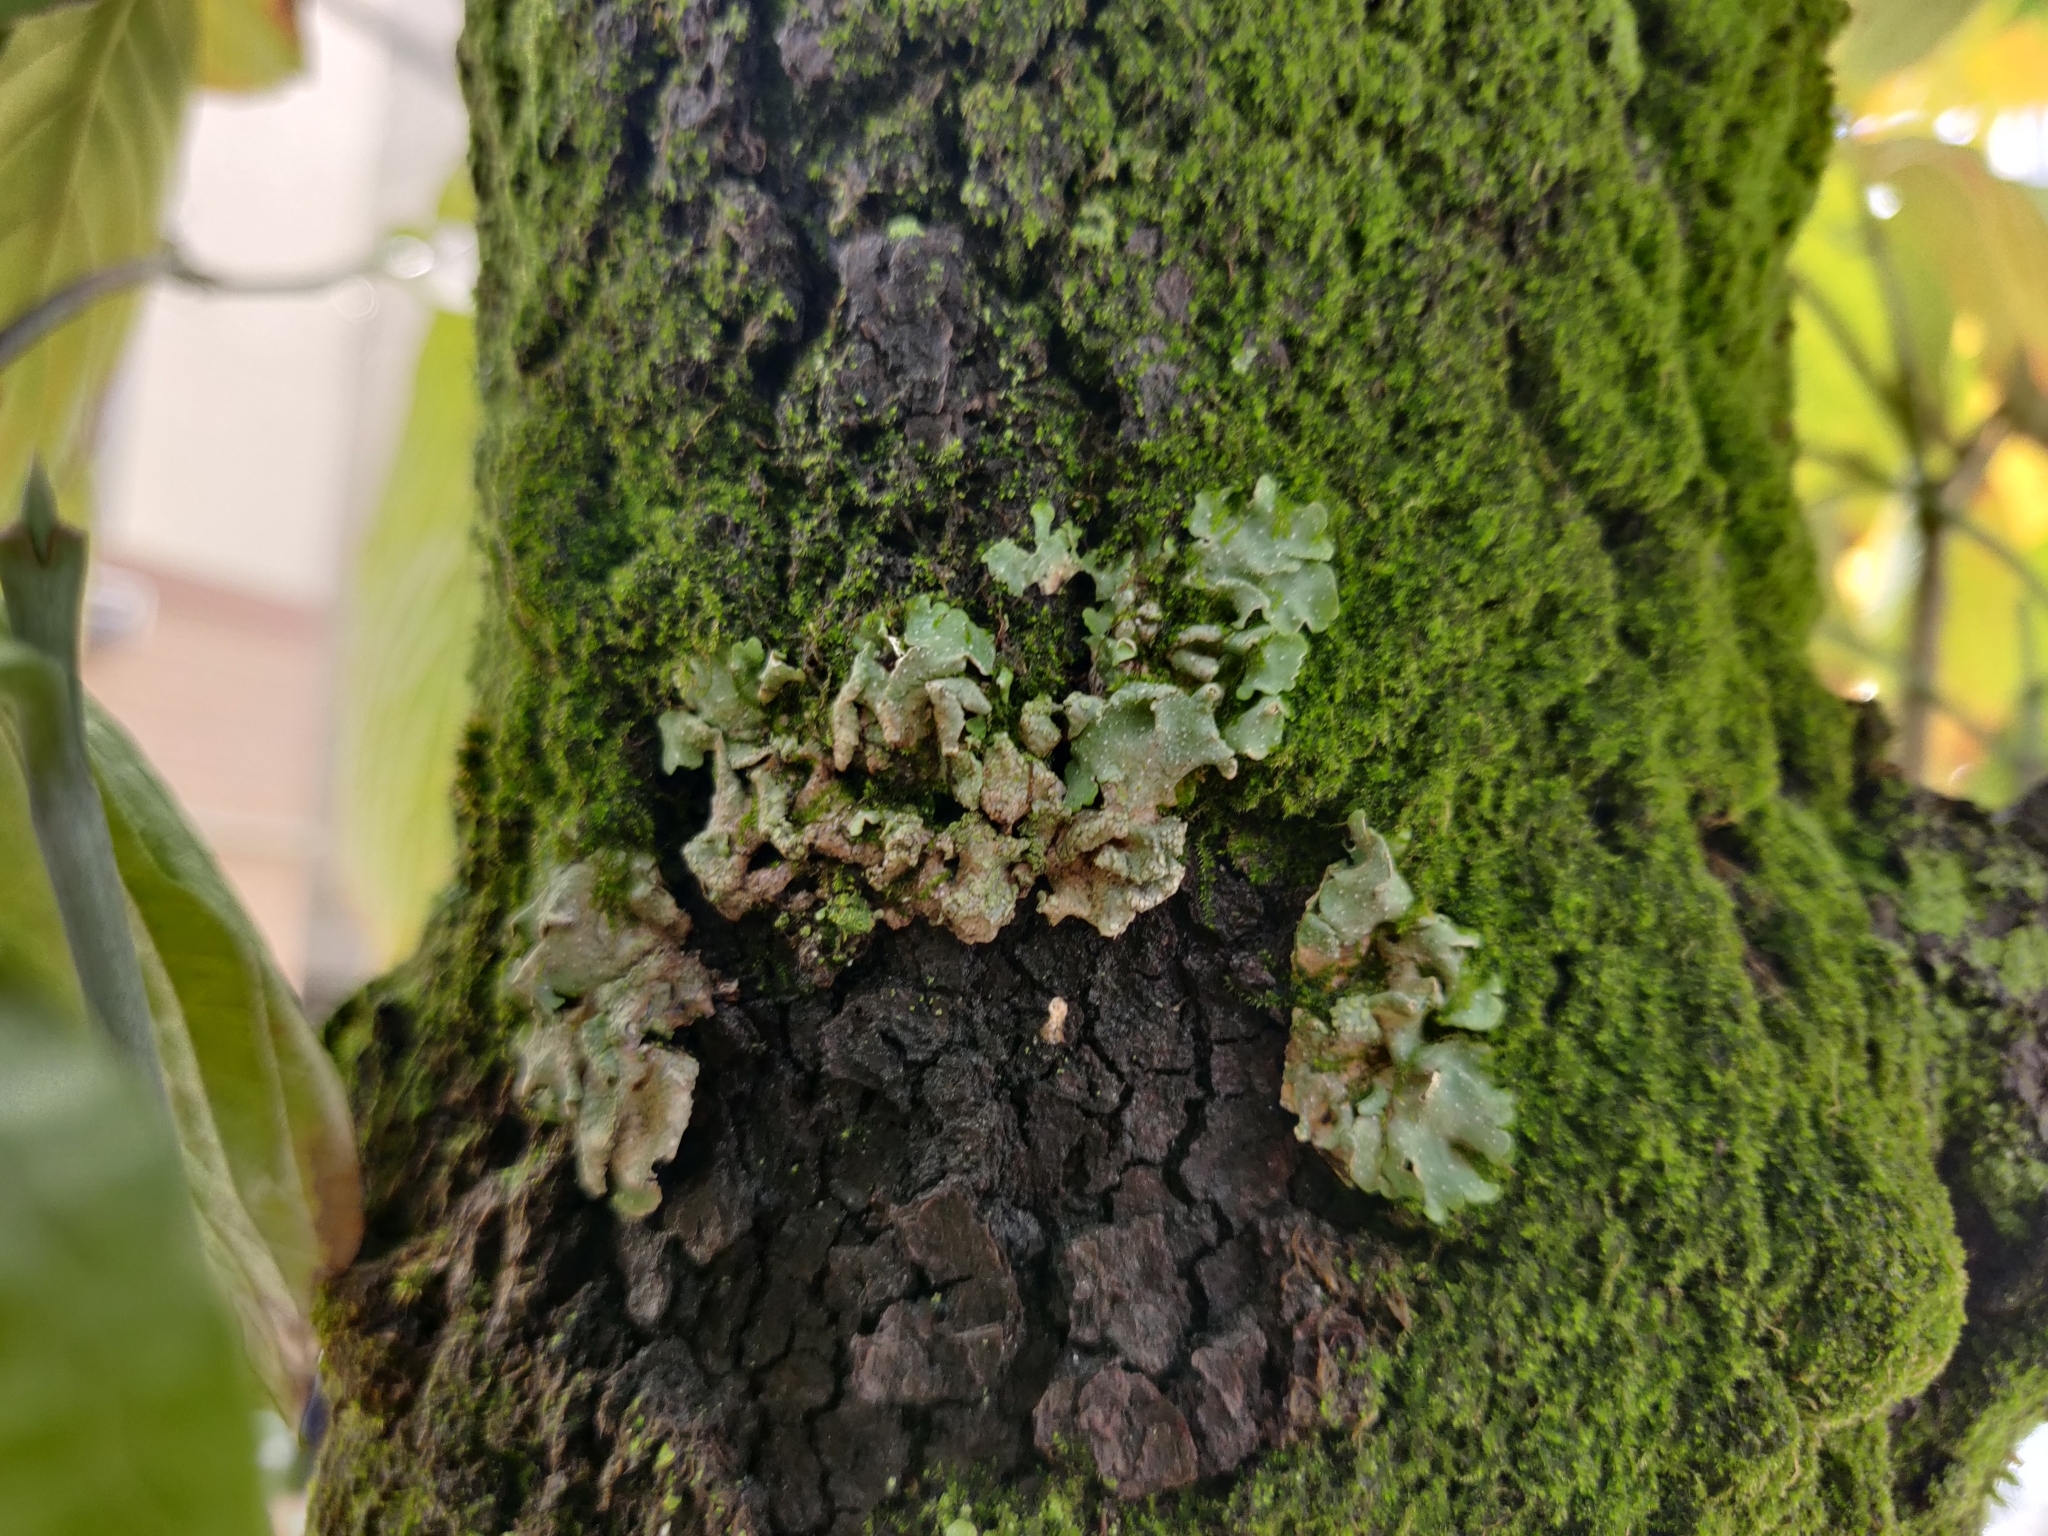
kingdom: Fungi
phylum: Ascomycota
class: Lecanoromycetes
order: Lecanorales
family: Parmeliaceae
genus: Punctelia
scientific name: Punctelia borreri
